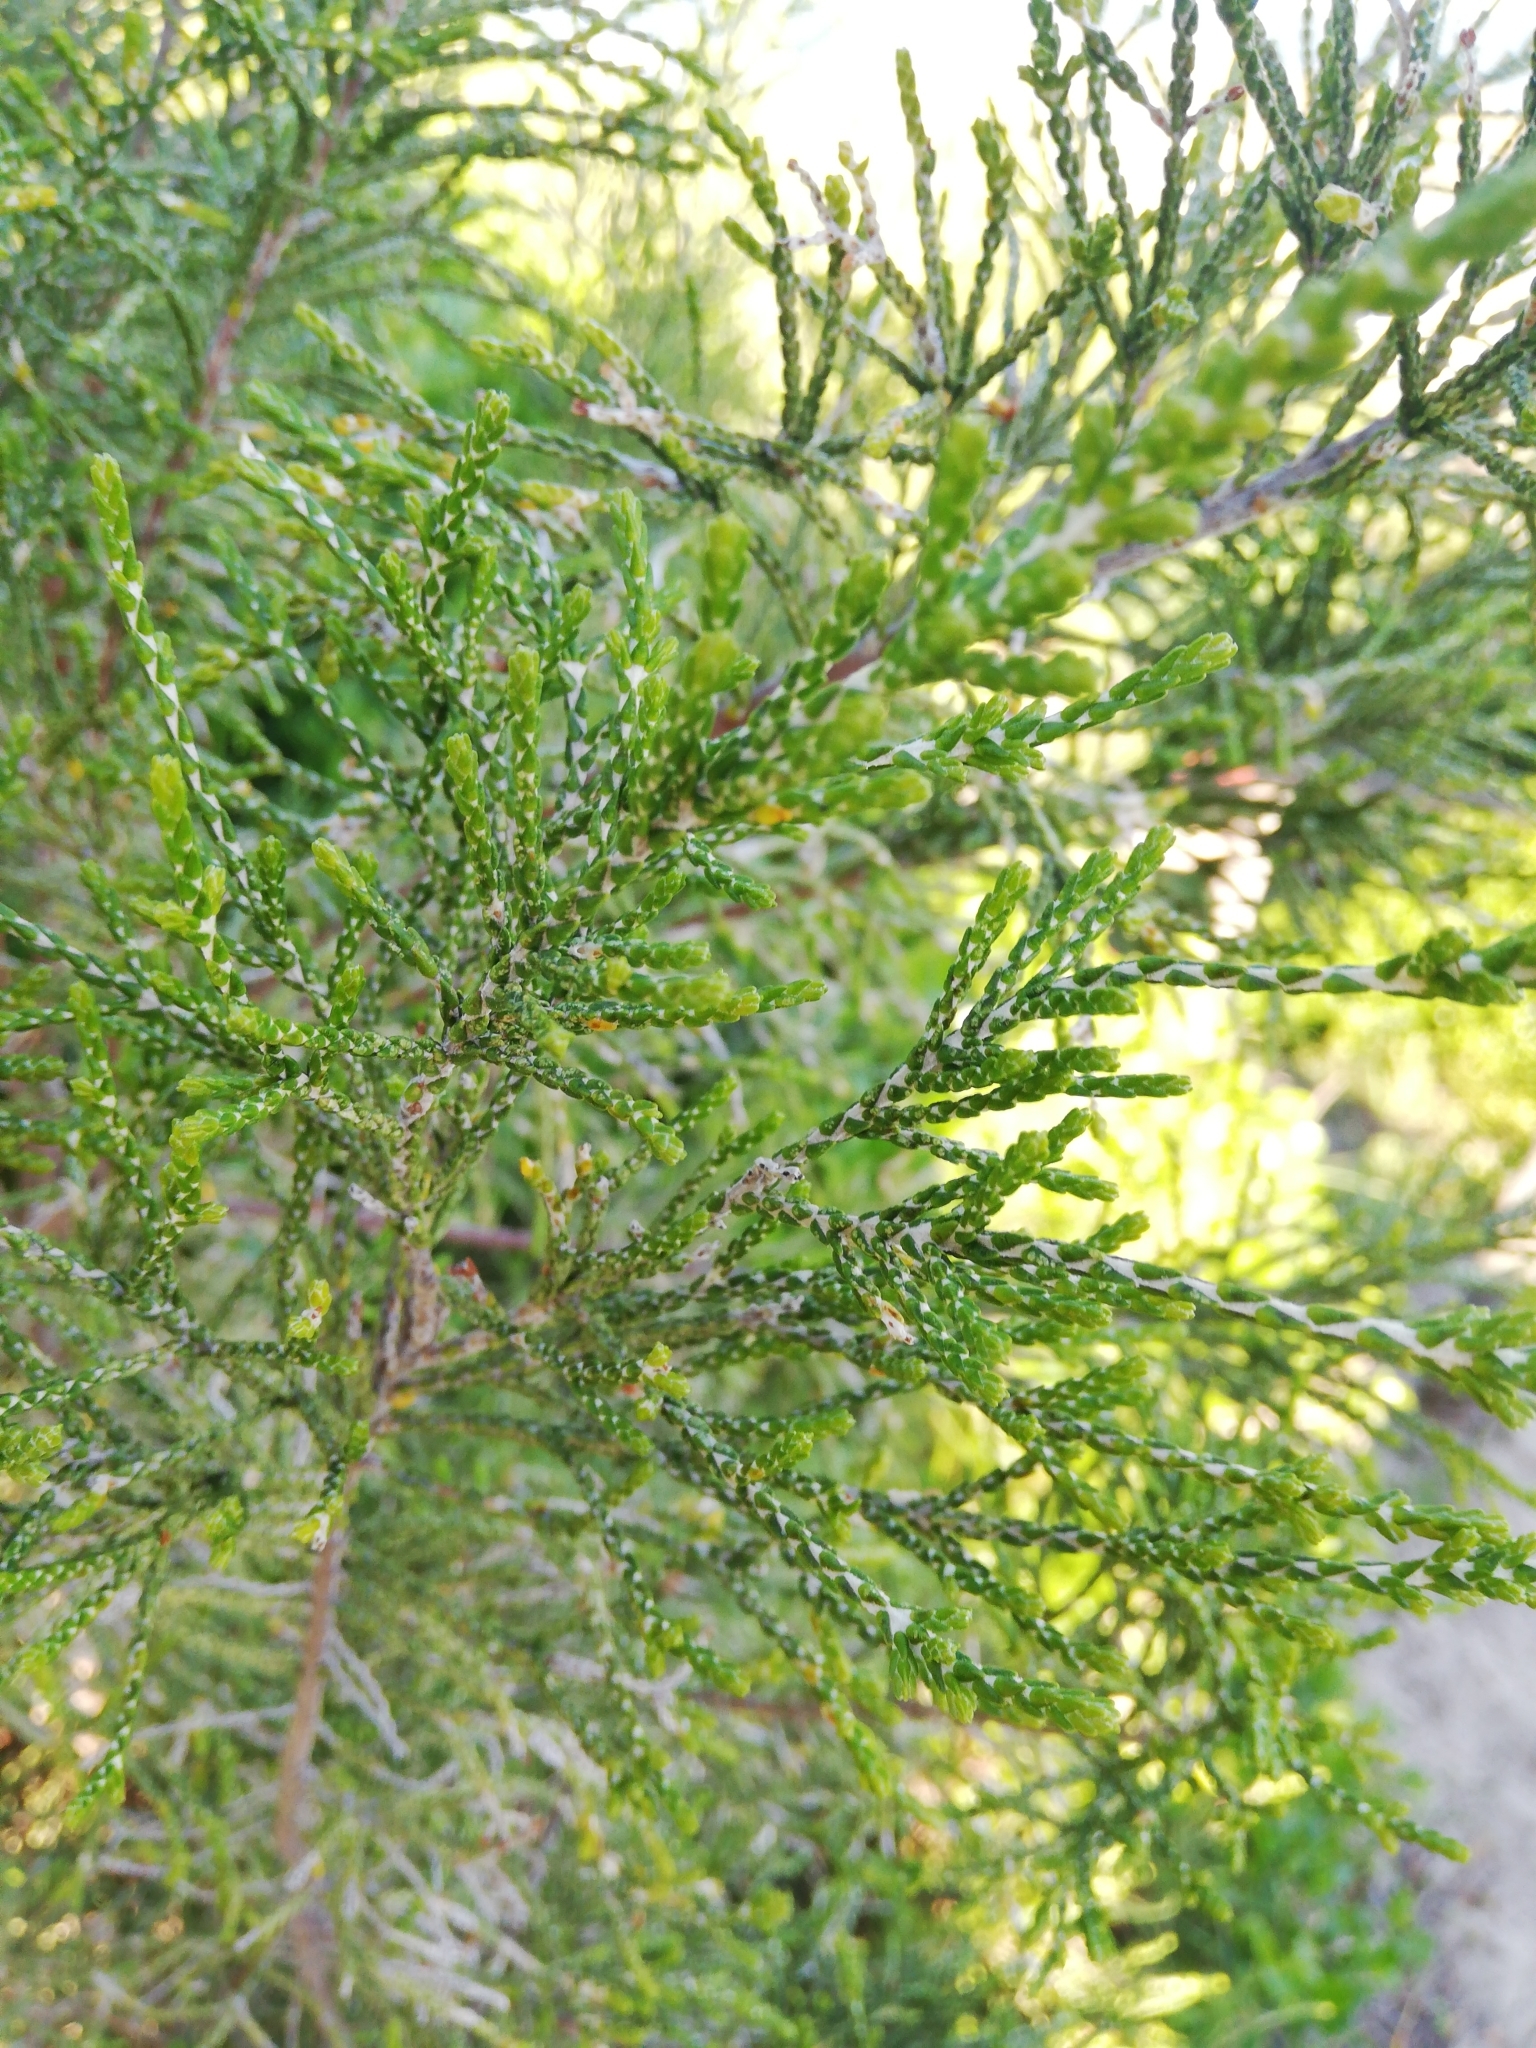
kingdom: Plantae
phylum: Tracheophyta
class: Magnoliopsida
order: Malvales
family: Thymelaeaceae
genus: Passerina
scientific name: Passerina rigida
